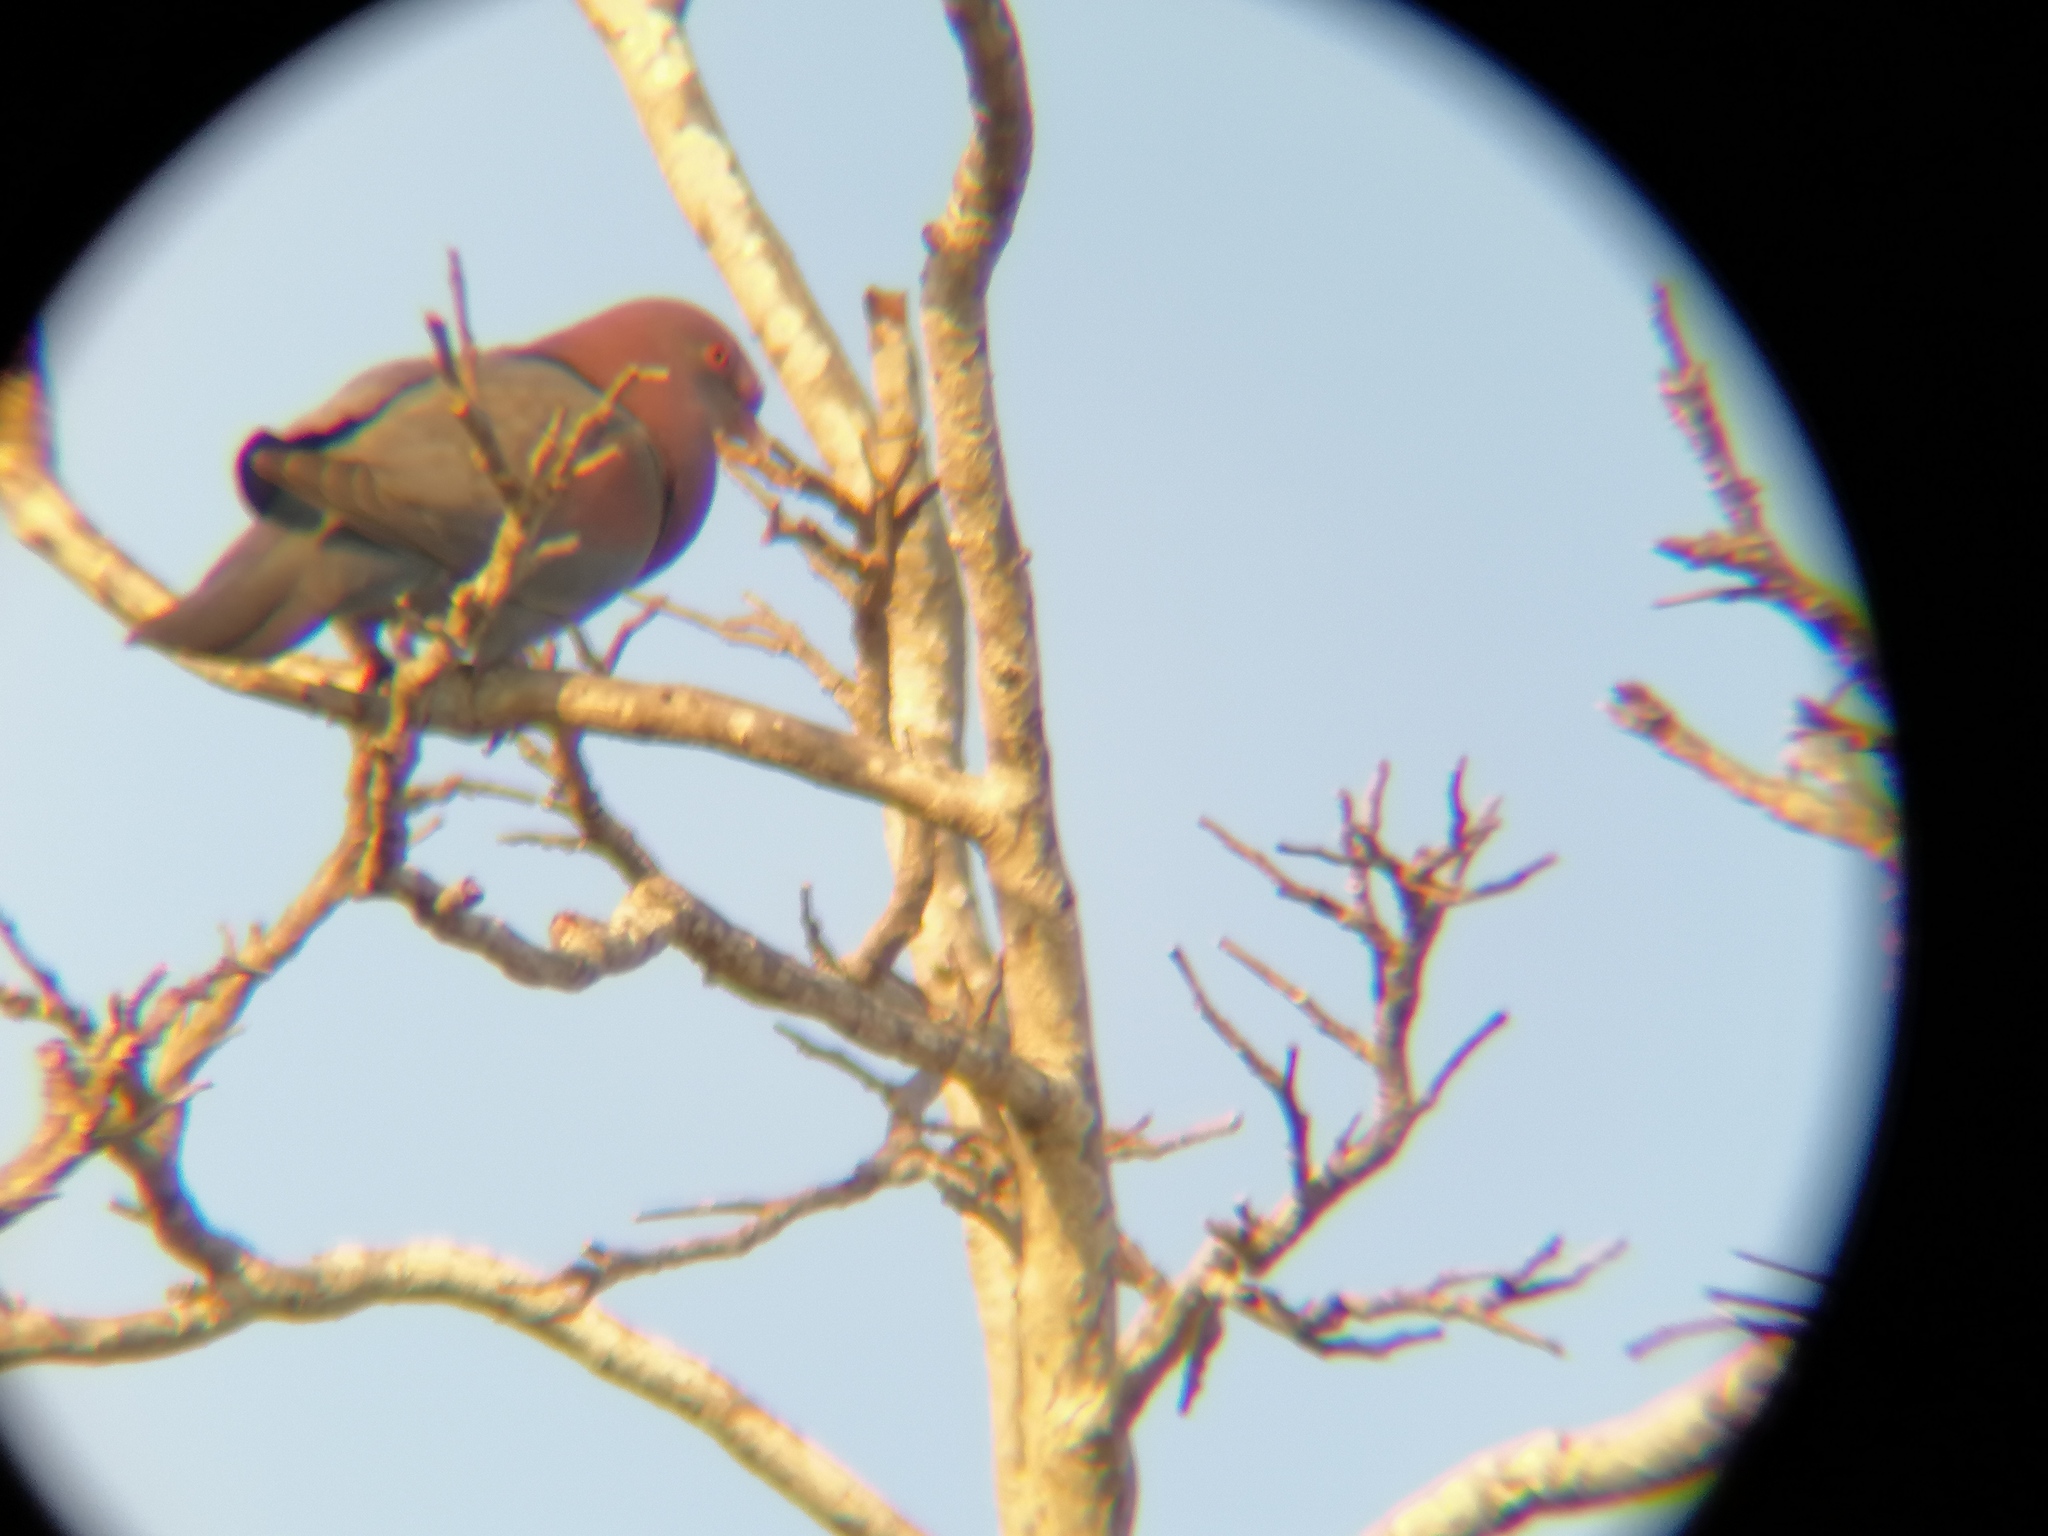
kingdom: Animalia
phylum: Chordata
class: Aves
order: Columbiformes
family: Columbidae
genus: Patagioenas
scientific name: Patagioenas flavirostris
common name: Red-billed pigeon
